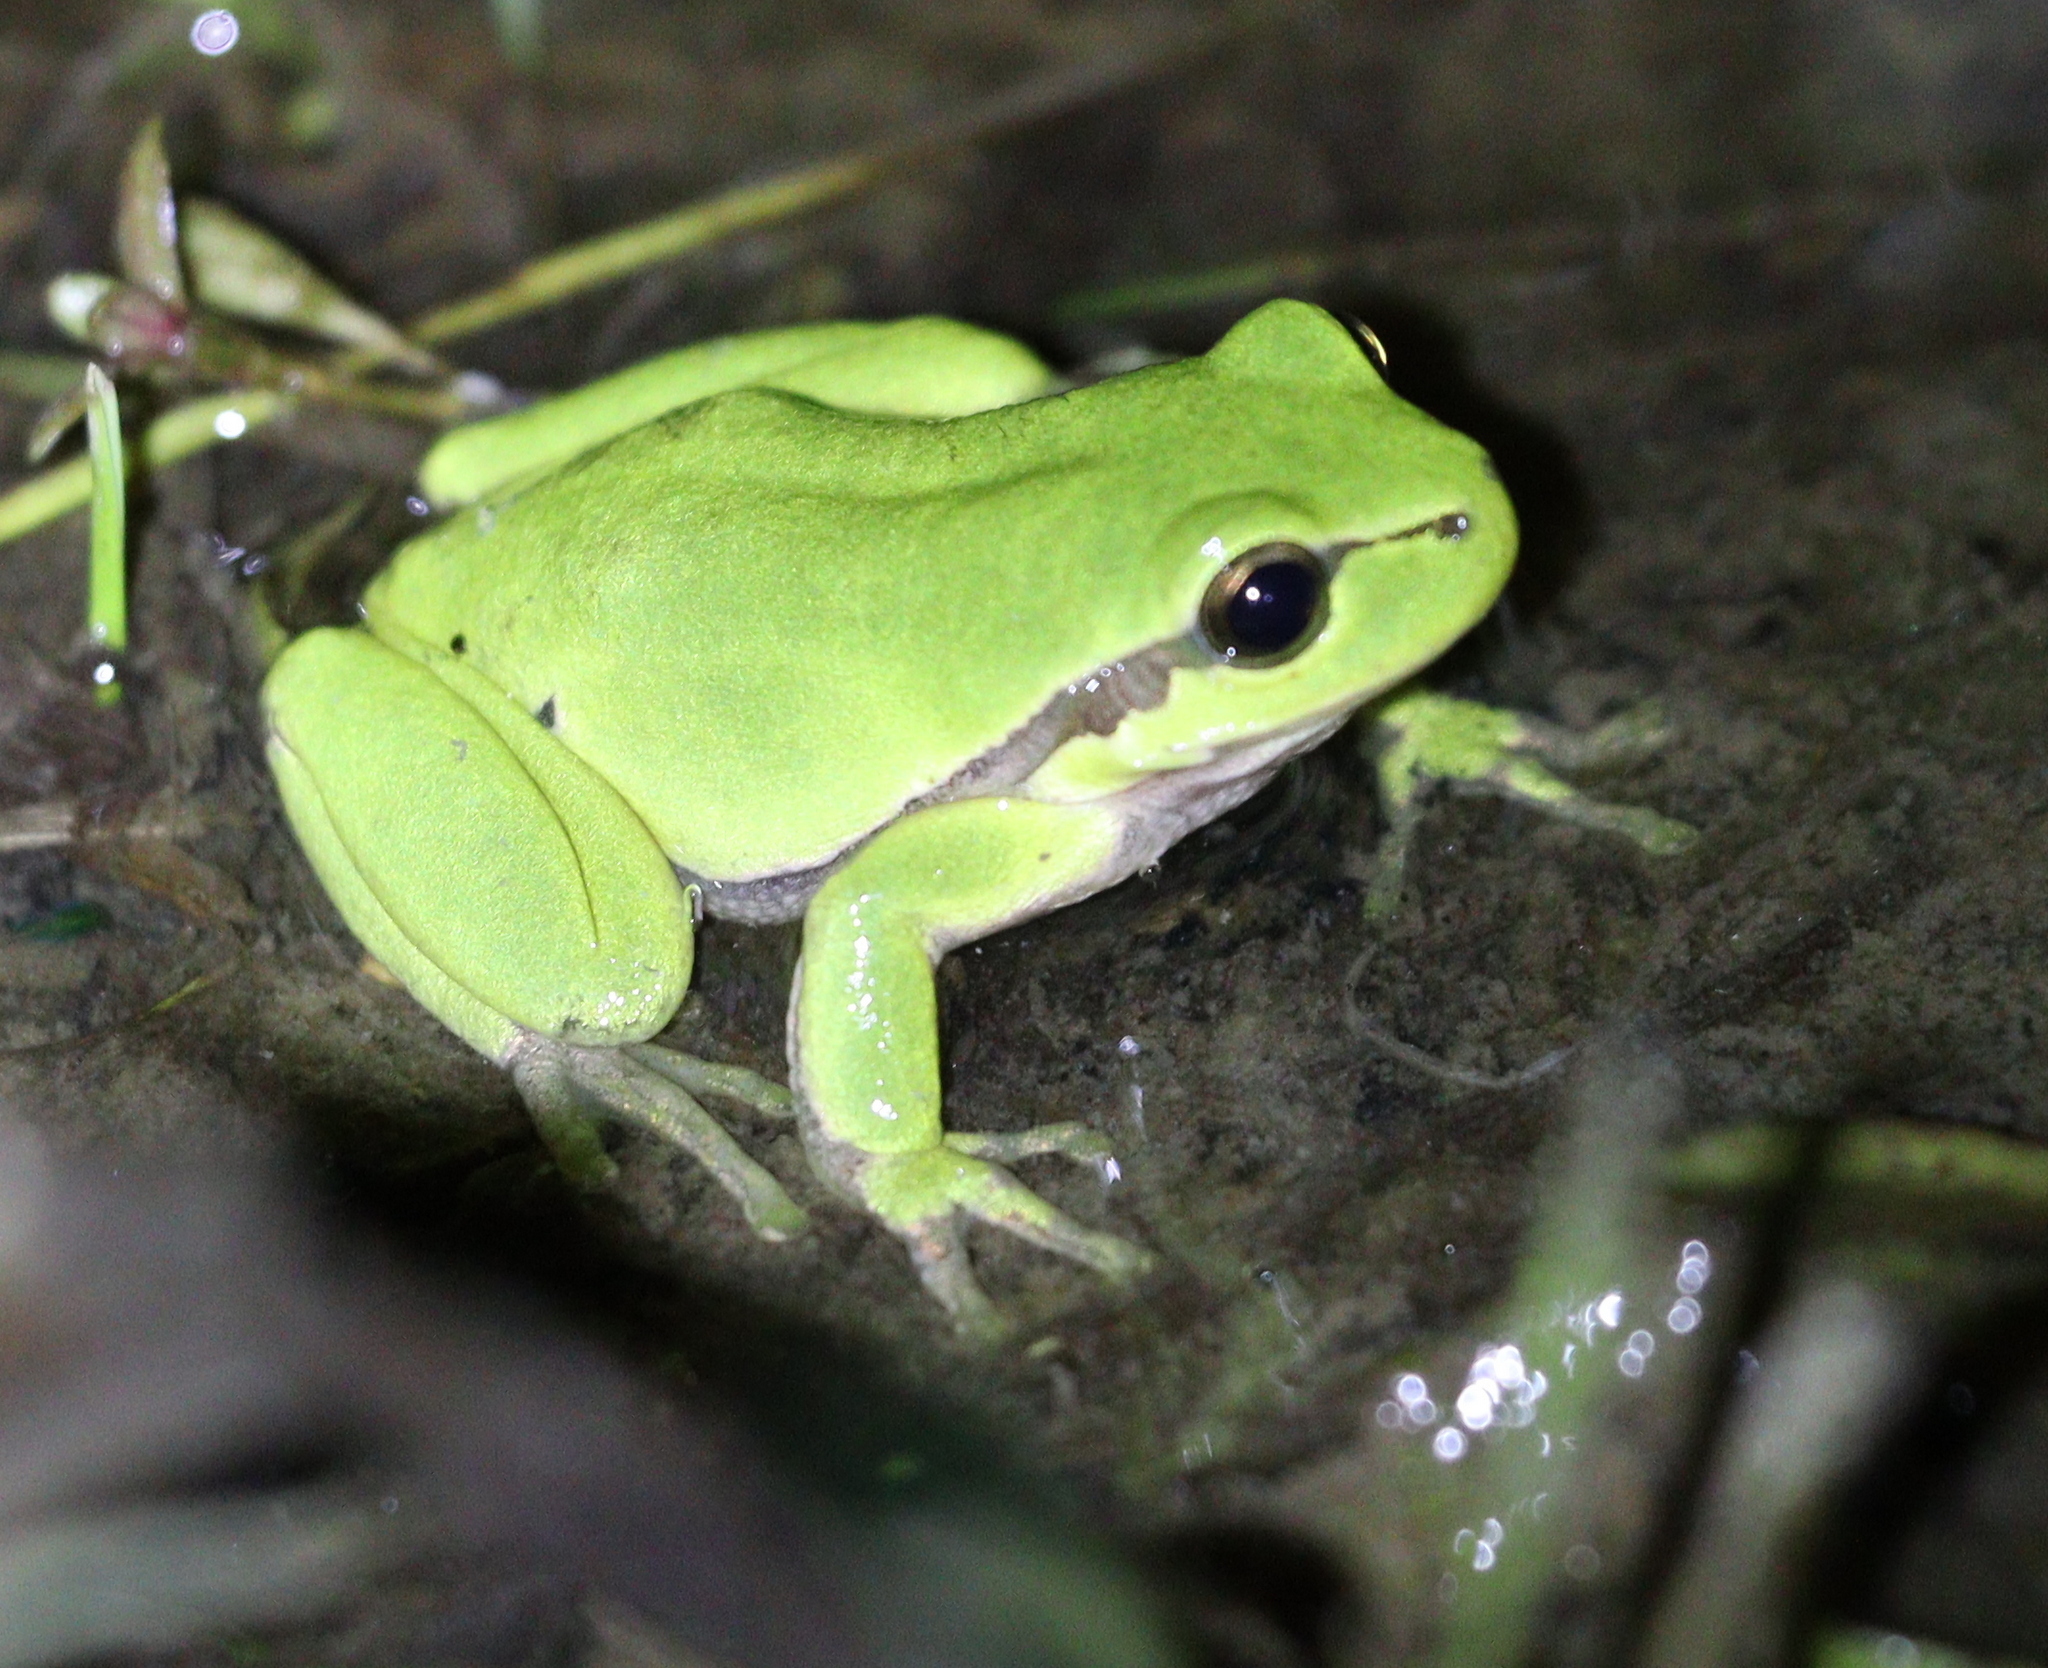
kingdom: Animalia
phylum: Chordata
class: Amphibia
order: Anura
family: Hylidae
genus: Hyla
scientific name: Hyla arborea
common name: Common tree frog
